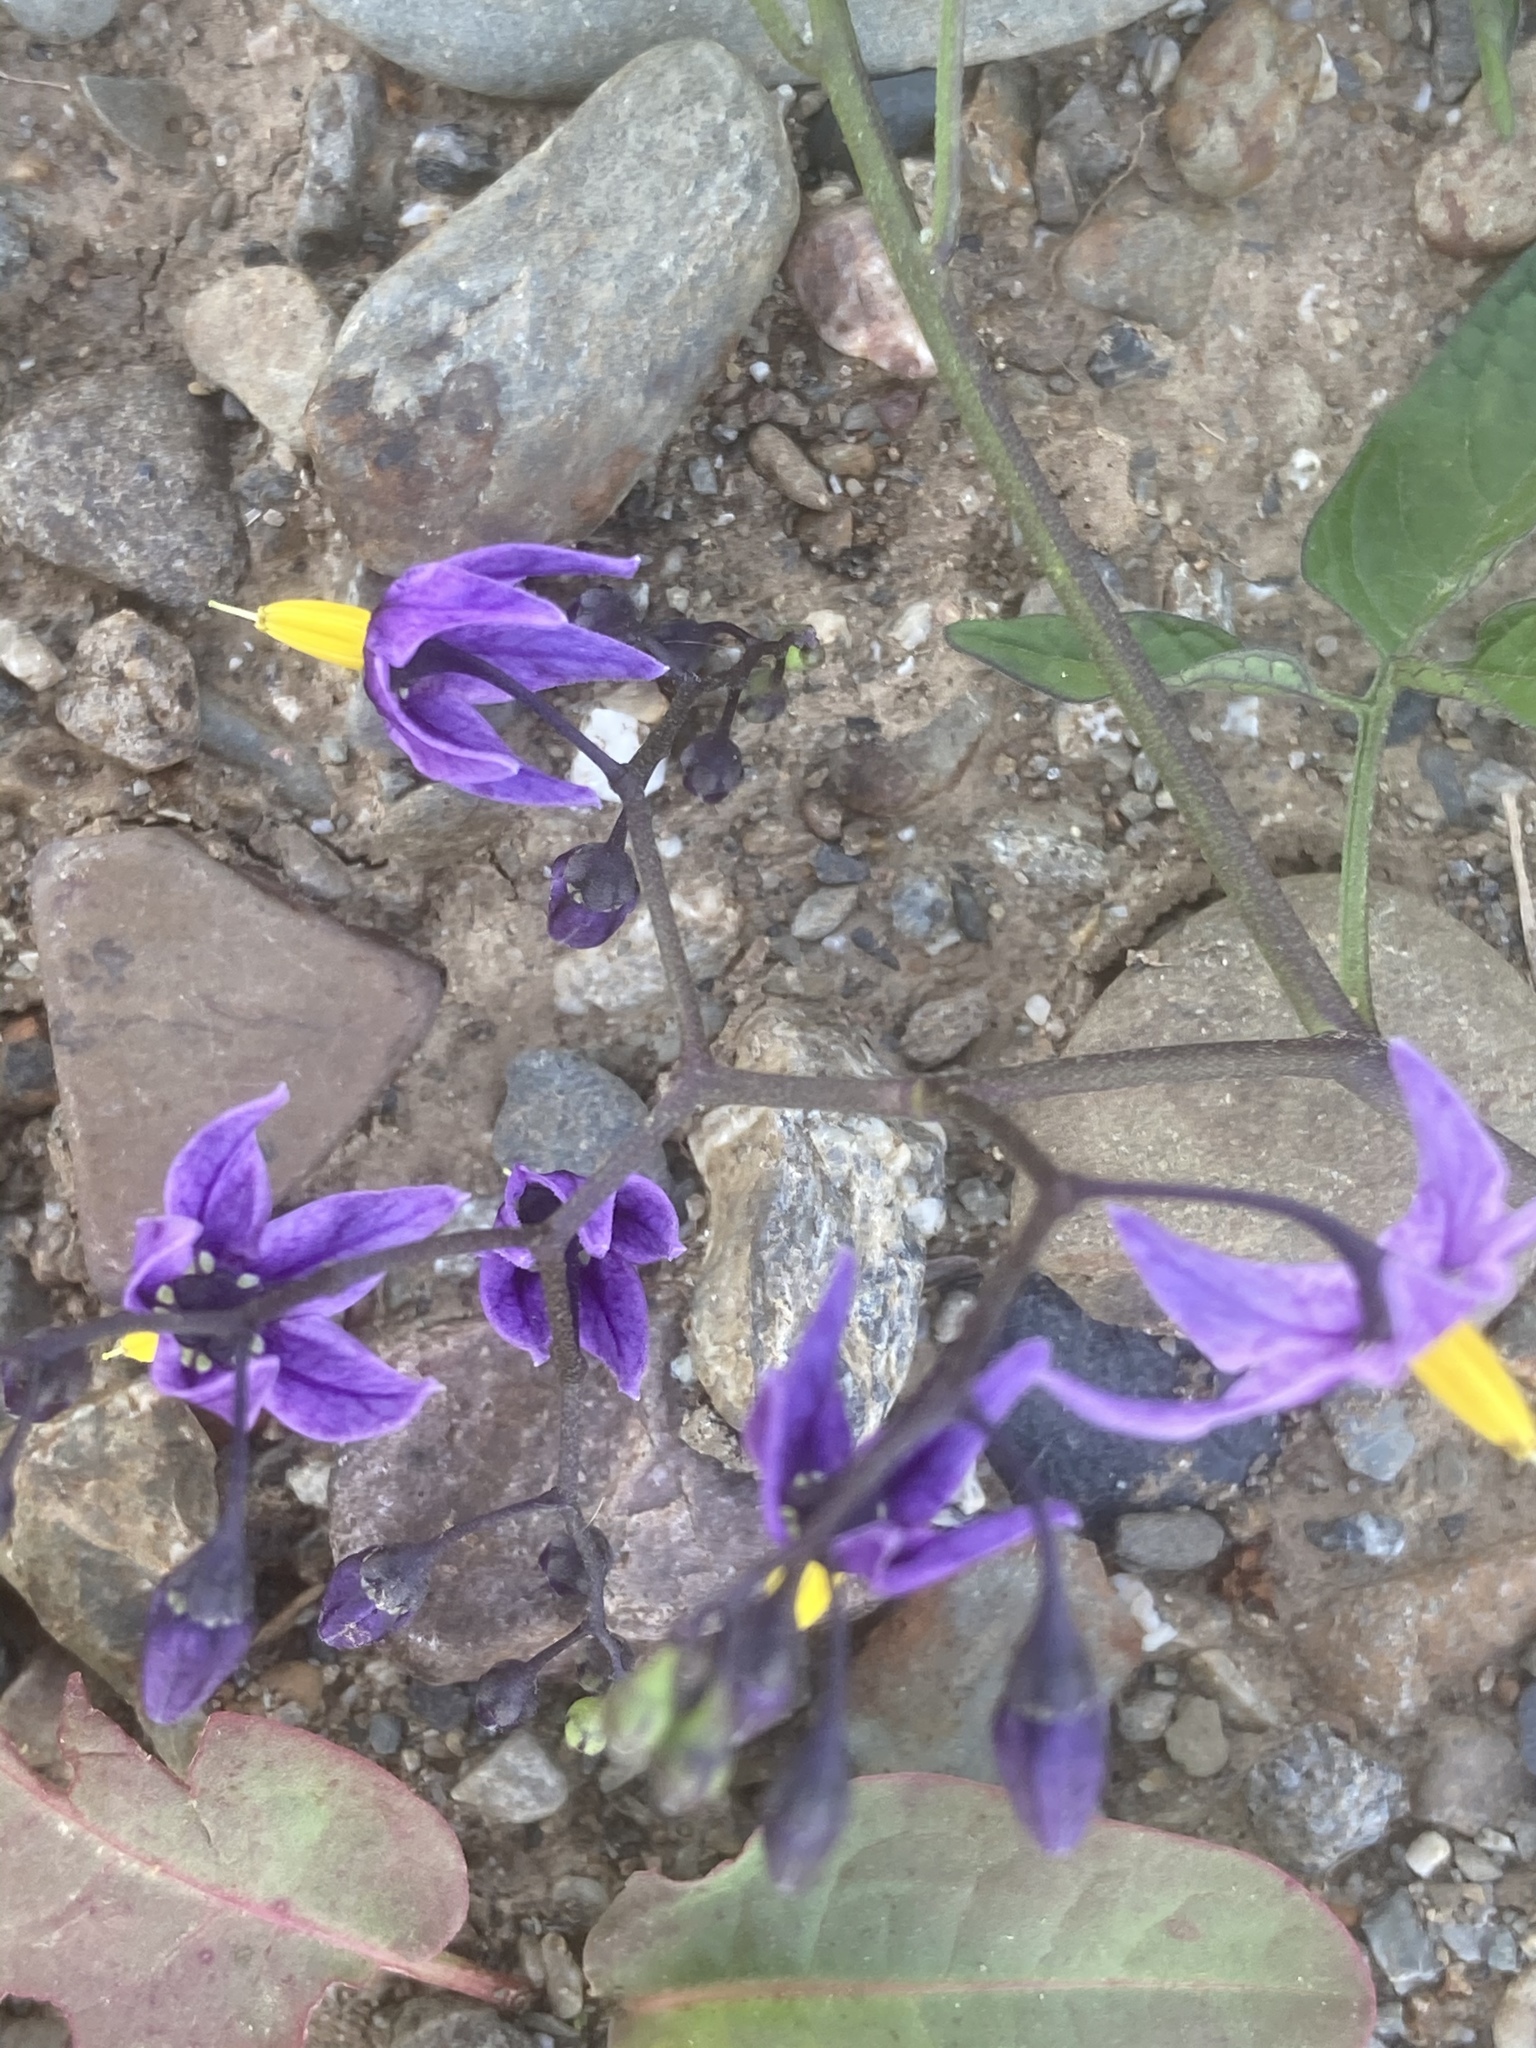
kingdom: Plantae
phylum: Tracheophyta
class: Magnoliopsida
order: Solanales
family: Solanaceae
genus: Solanum
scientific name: Solanum dulcamara
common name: Climbing nightshade
